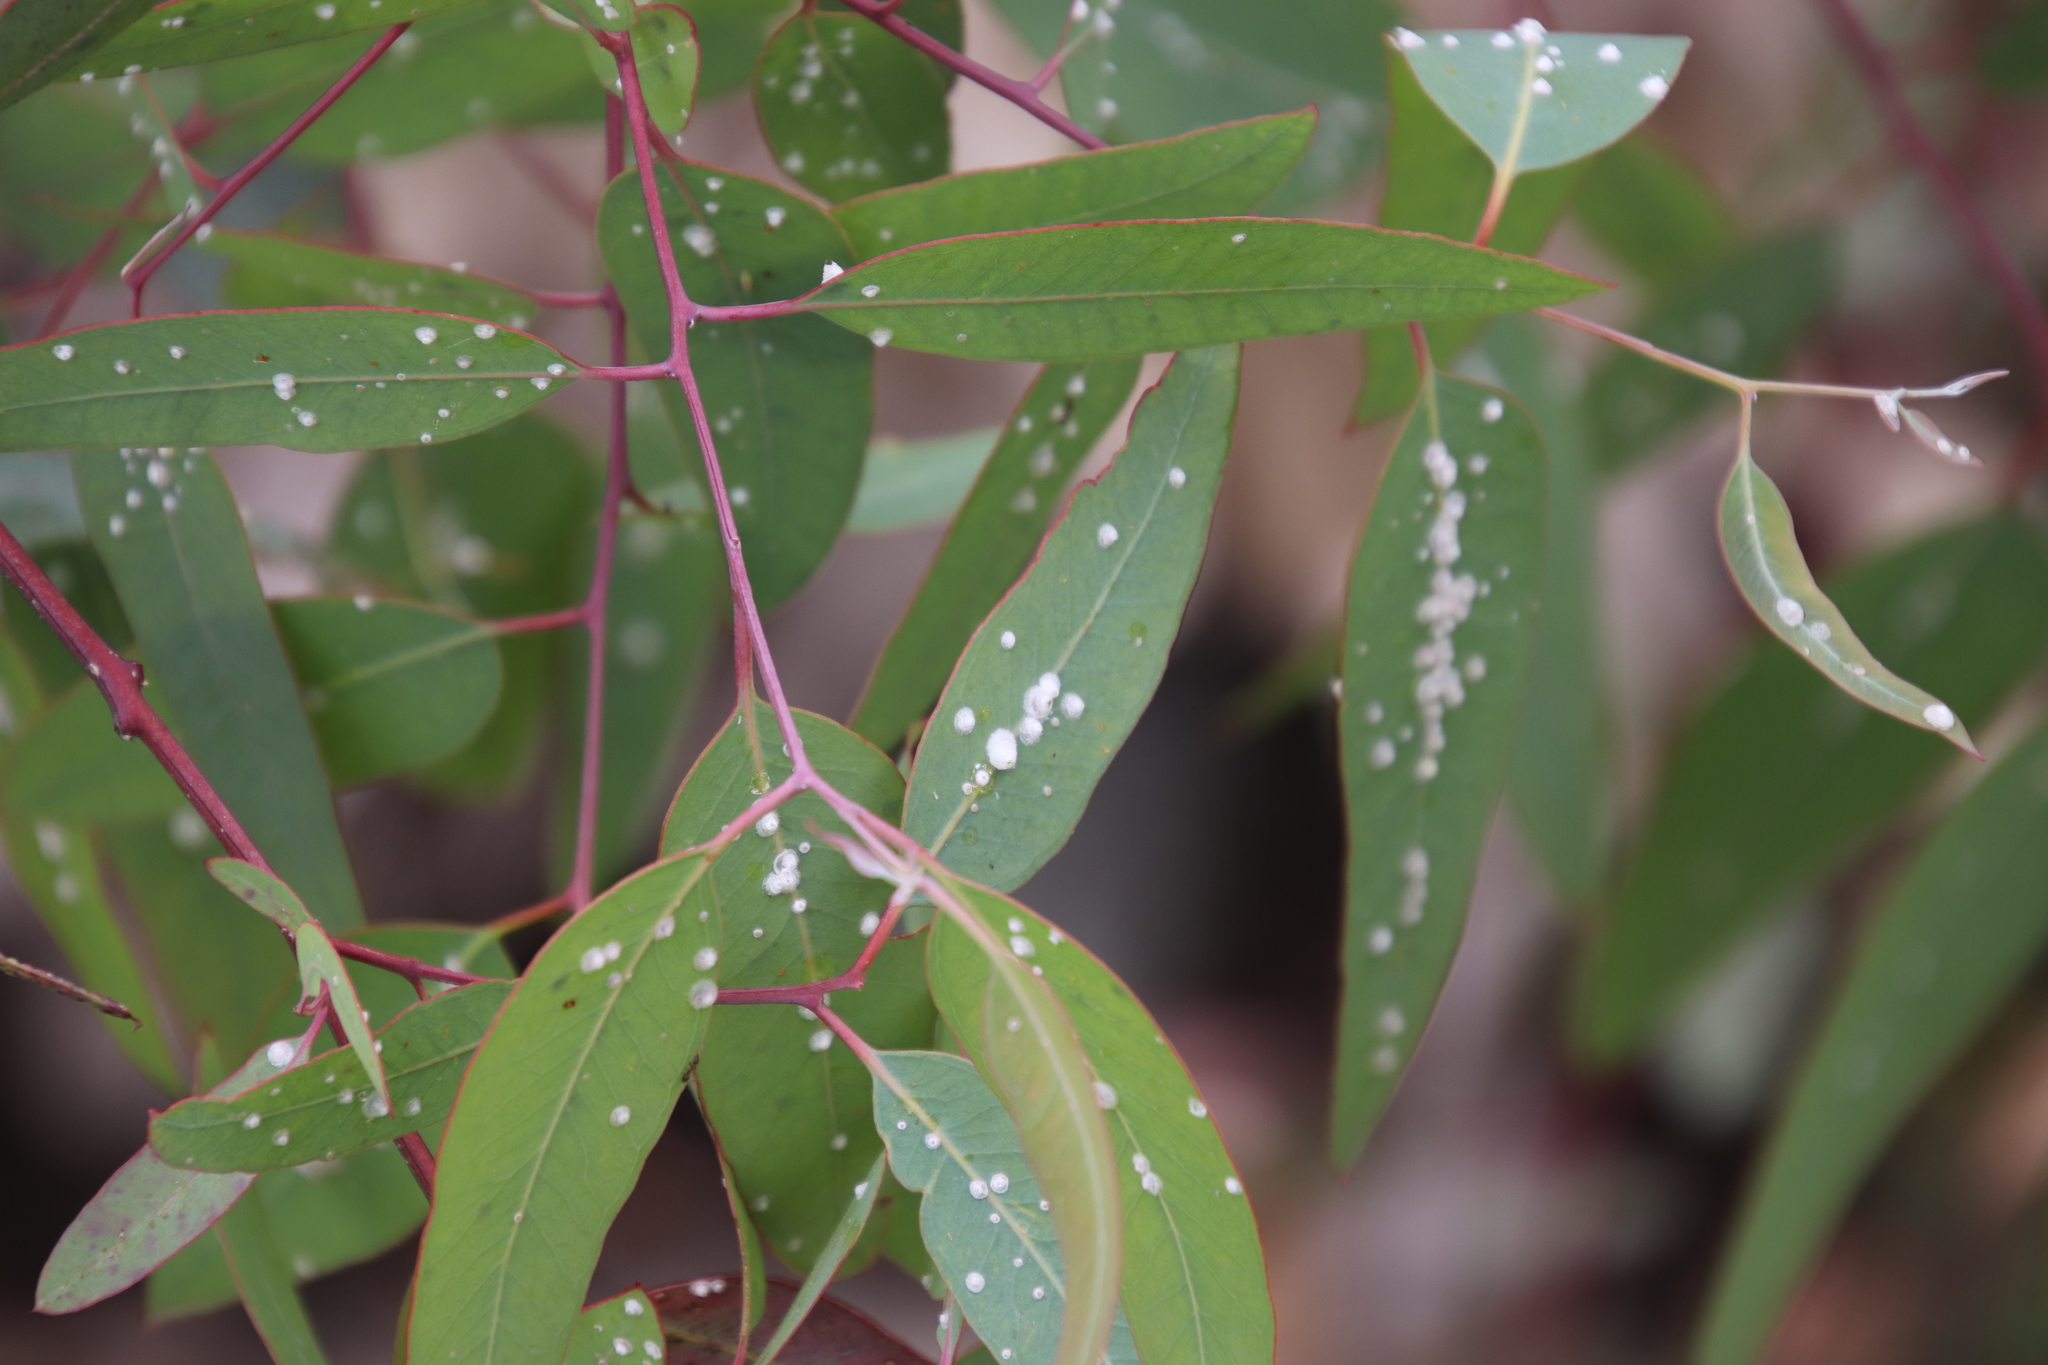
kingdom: Animalia
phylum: Arthropoda
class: Insecta
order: Hemiptera
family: Aphalaridae
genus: Glycaspis
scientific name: Glycaspis brimblecombei
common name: Red gum lerp psyllid
